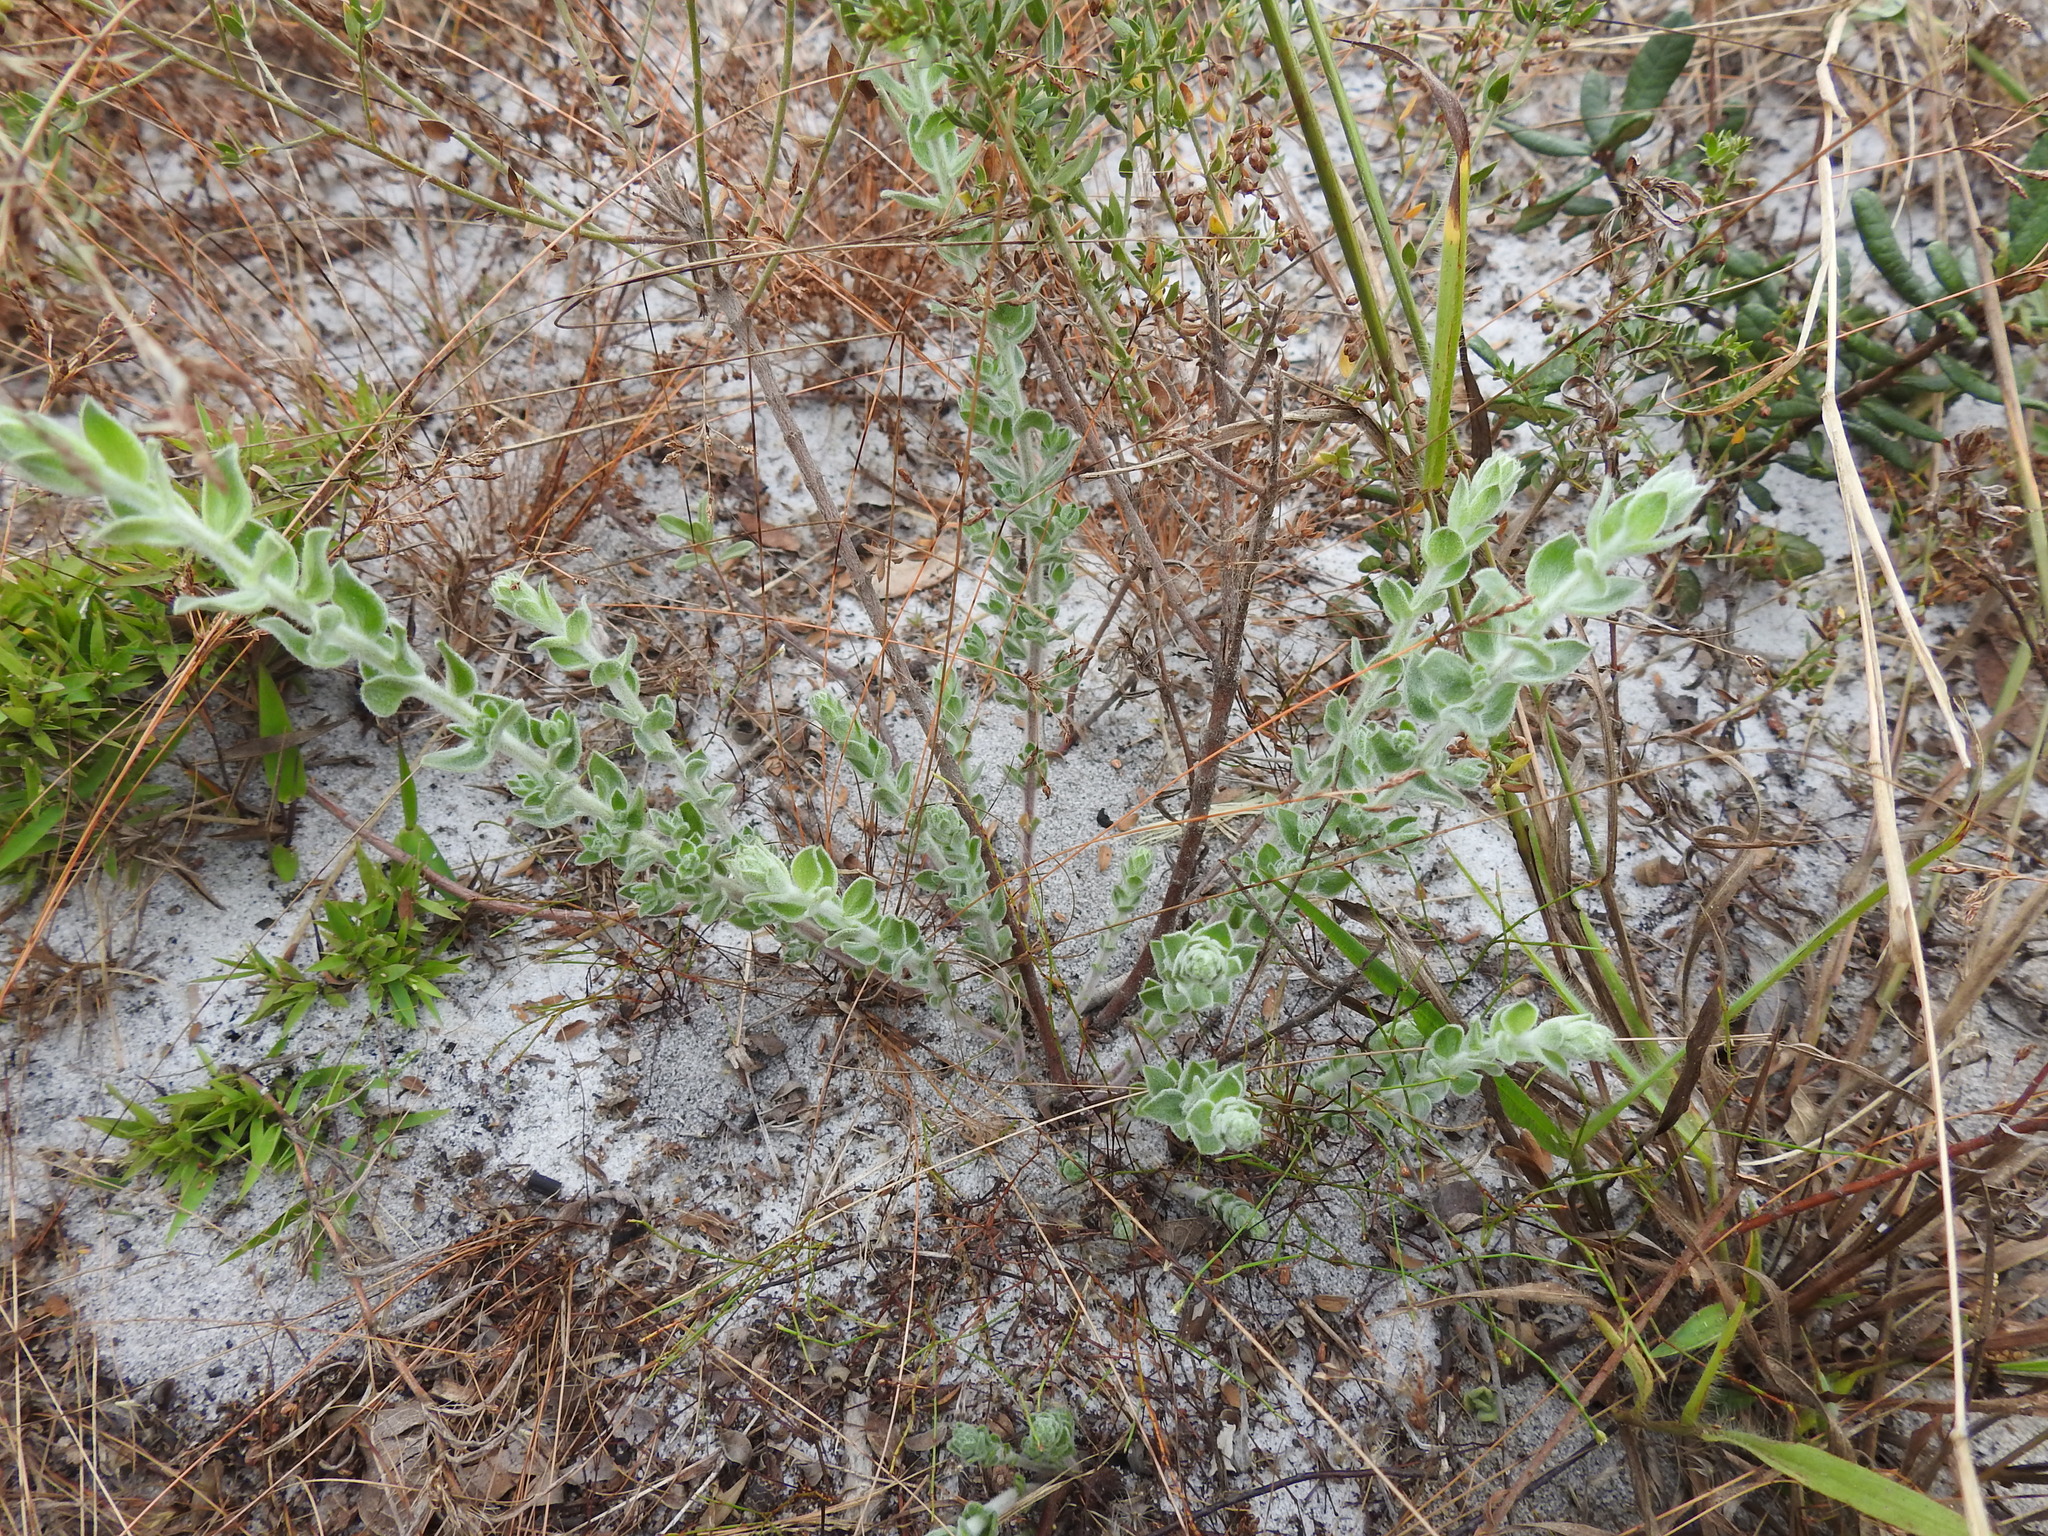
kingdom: Plantae
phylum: Tracheophyta
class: Magnoliopsida
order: Malvales
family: Cistaceae
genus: Lechea
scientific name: Lechea cernua
